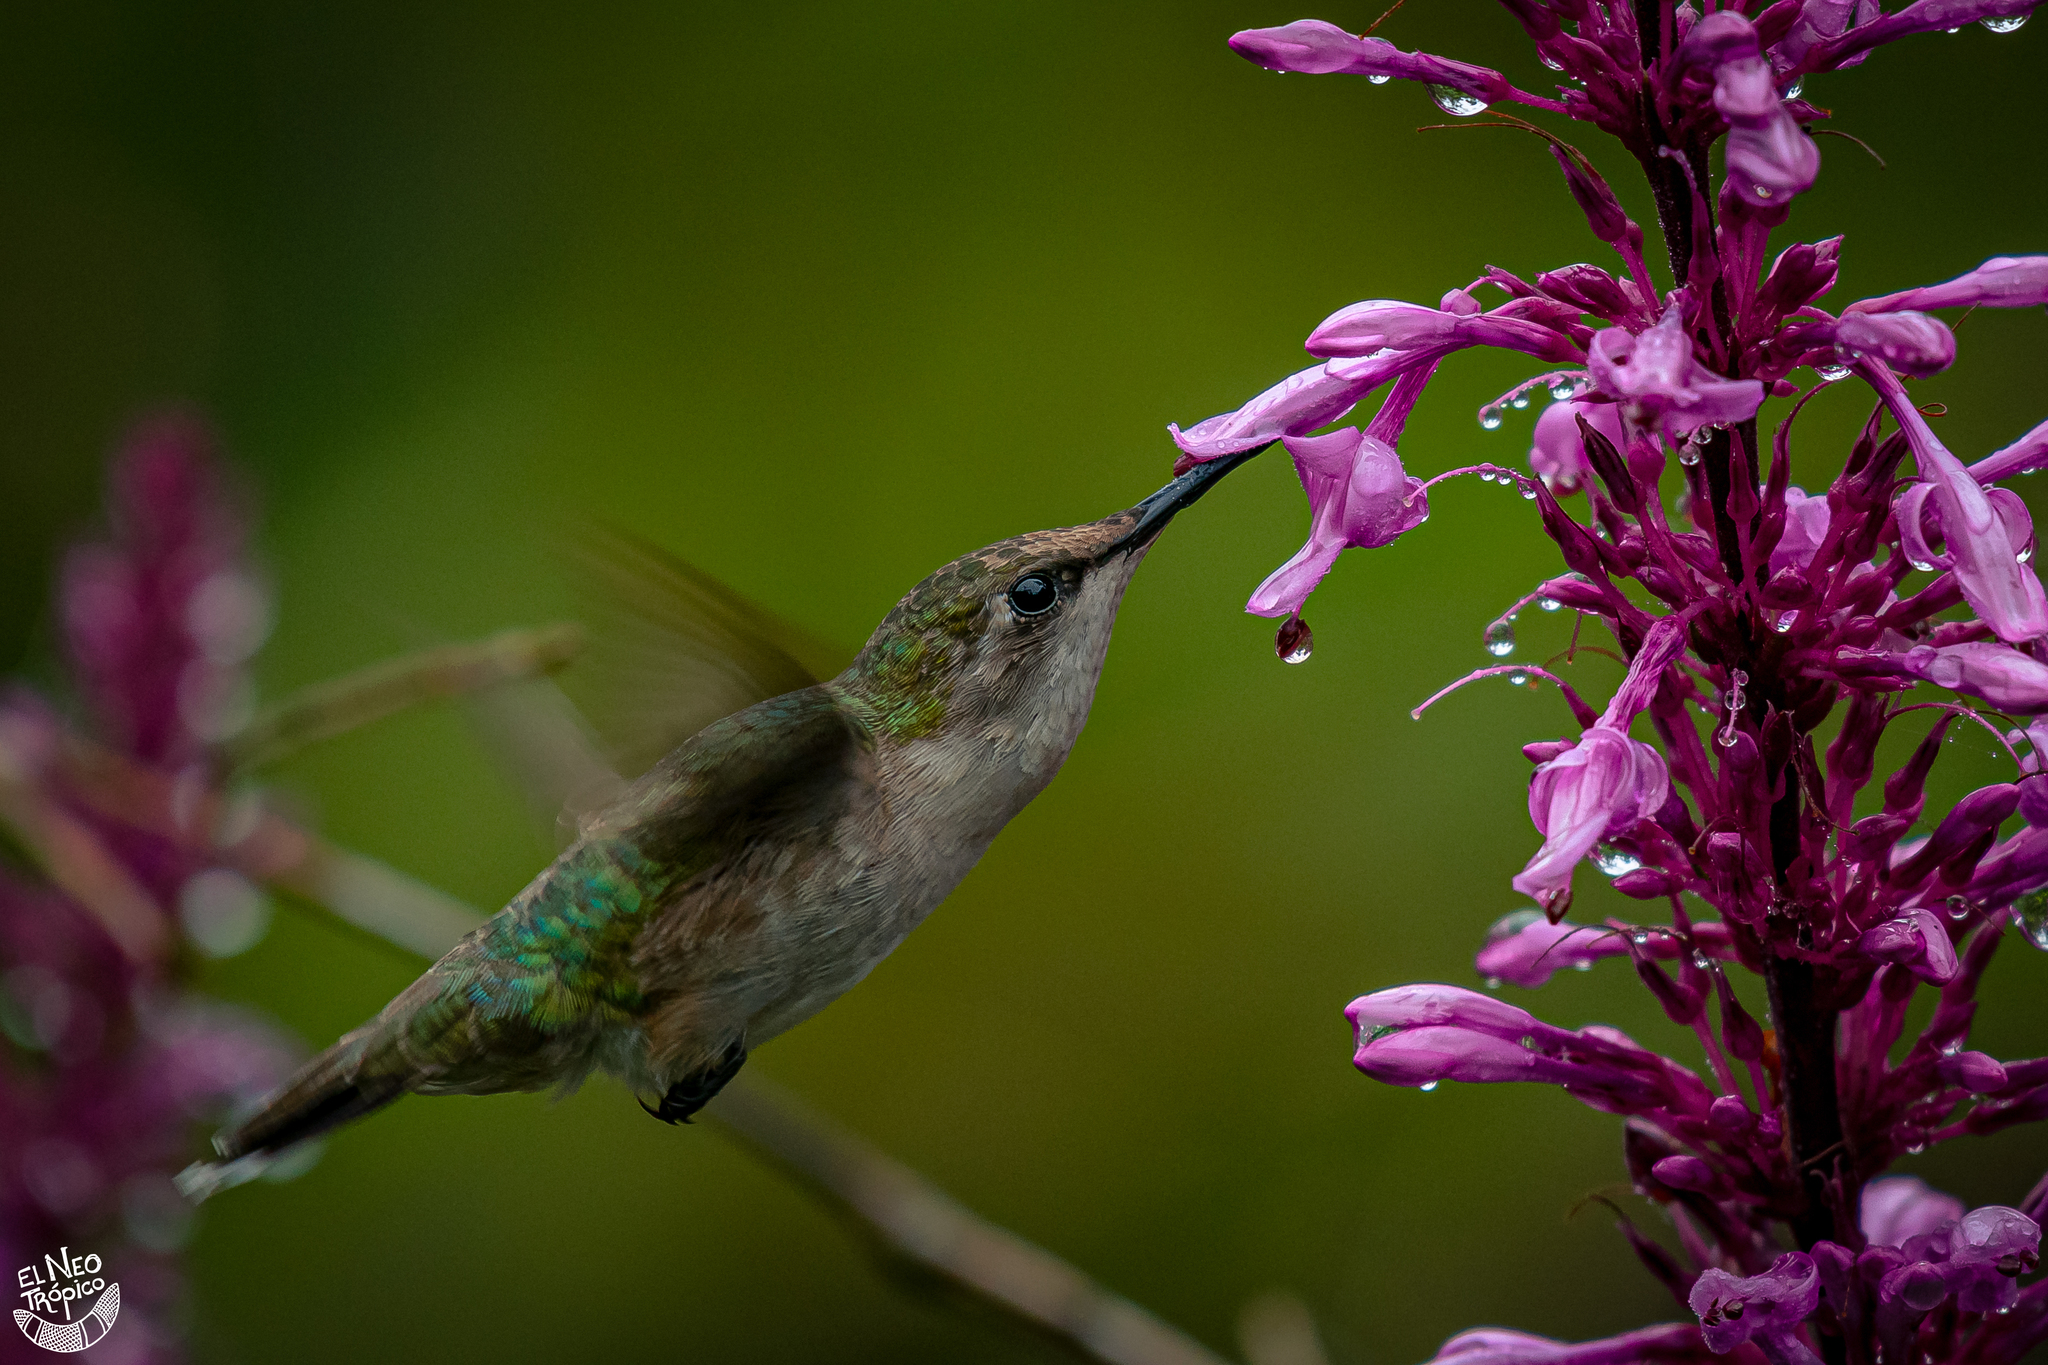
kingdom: Animalia
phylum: Chordata
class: Aves
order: Apodiformes
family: Trochilidae
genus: Archilochus
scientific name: Archilochus colubris
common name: Ruby-throated hummingbird
